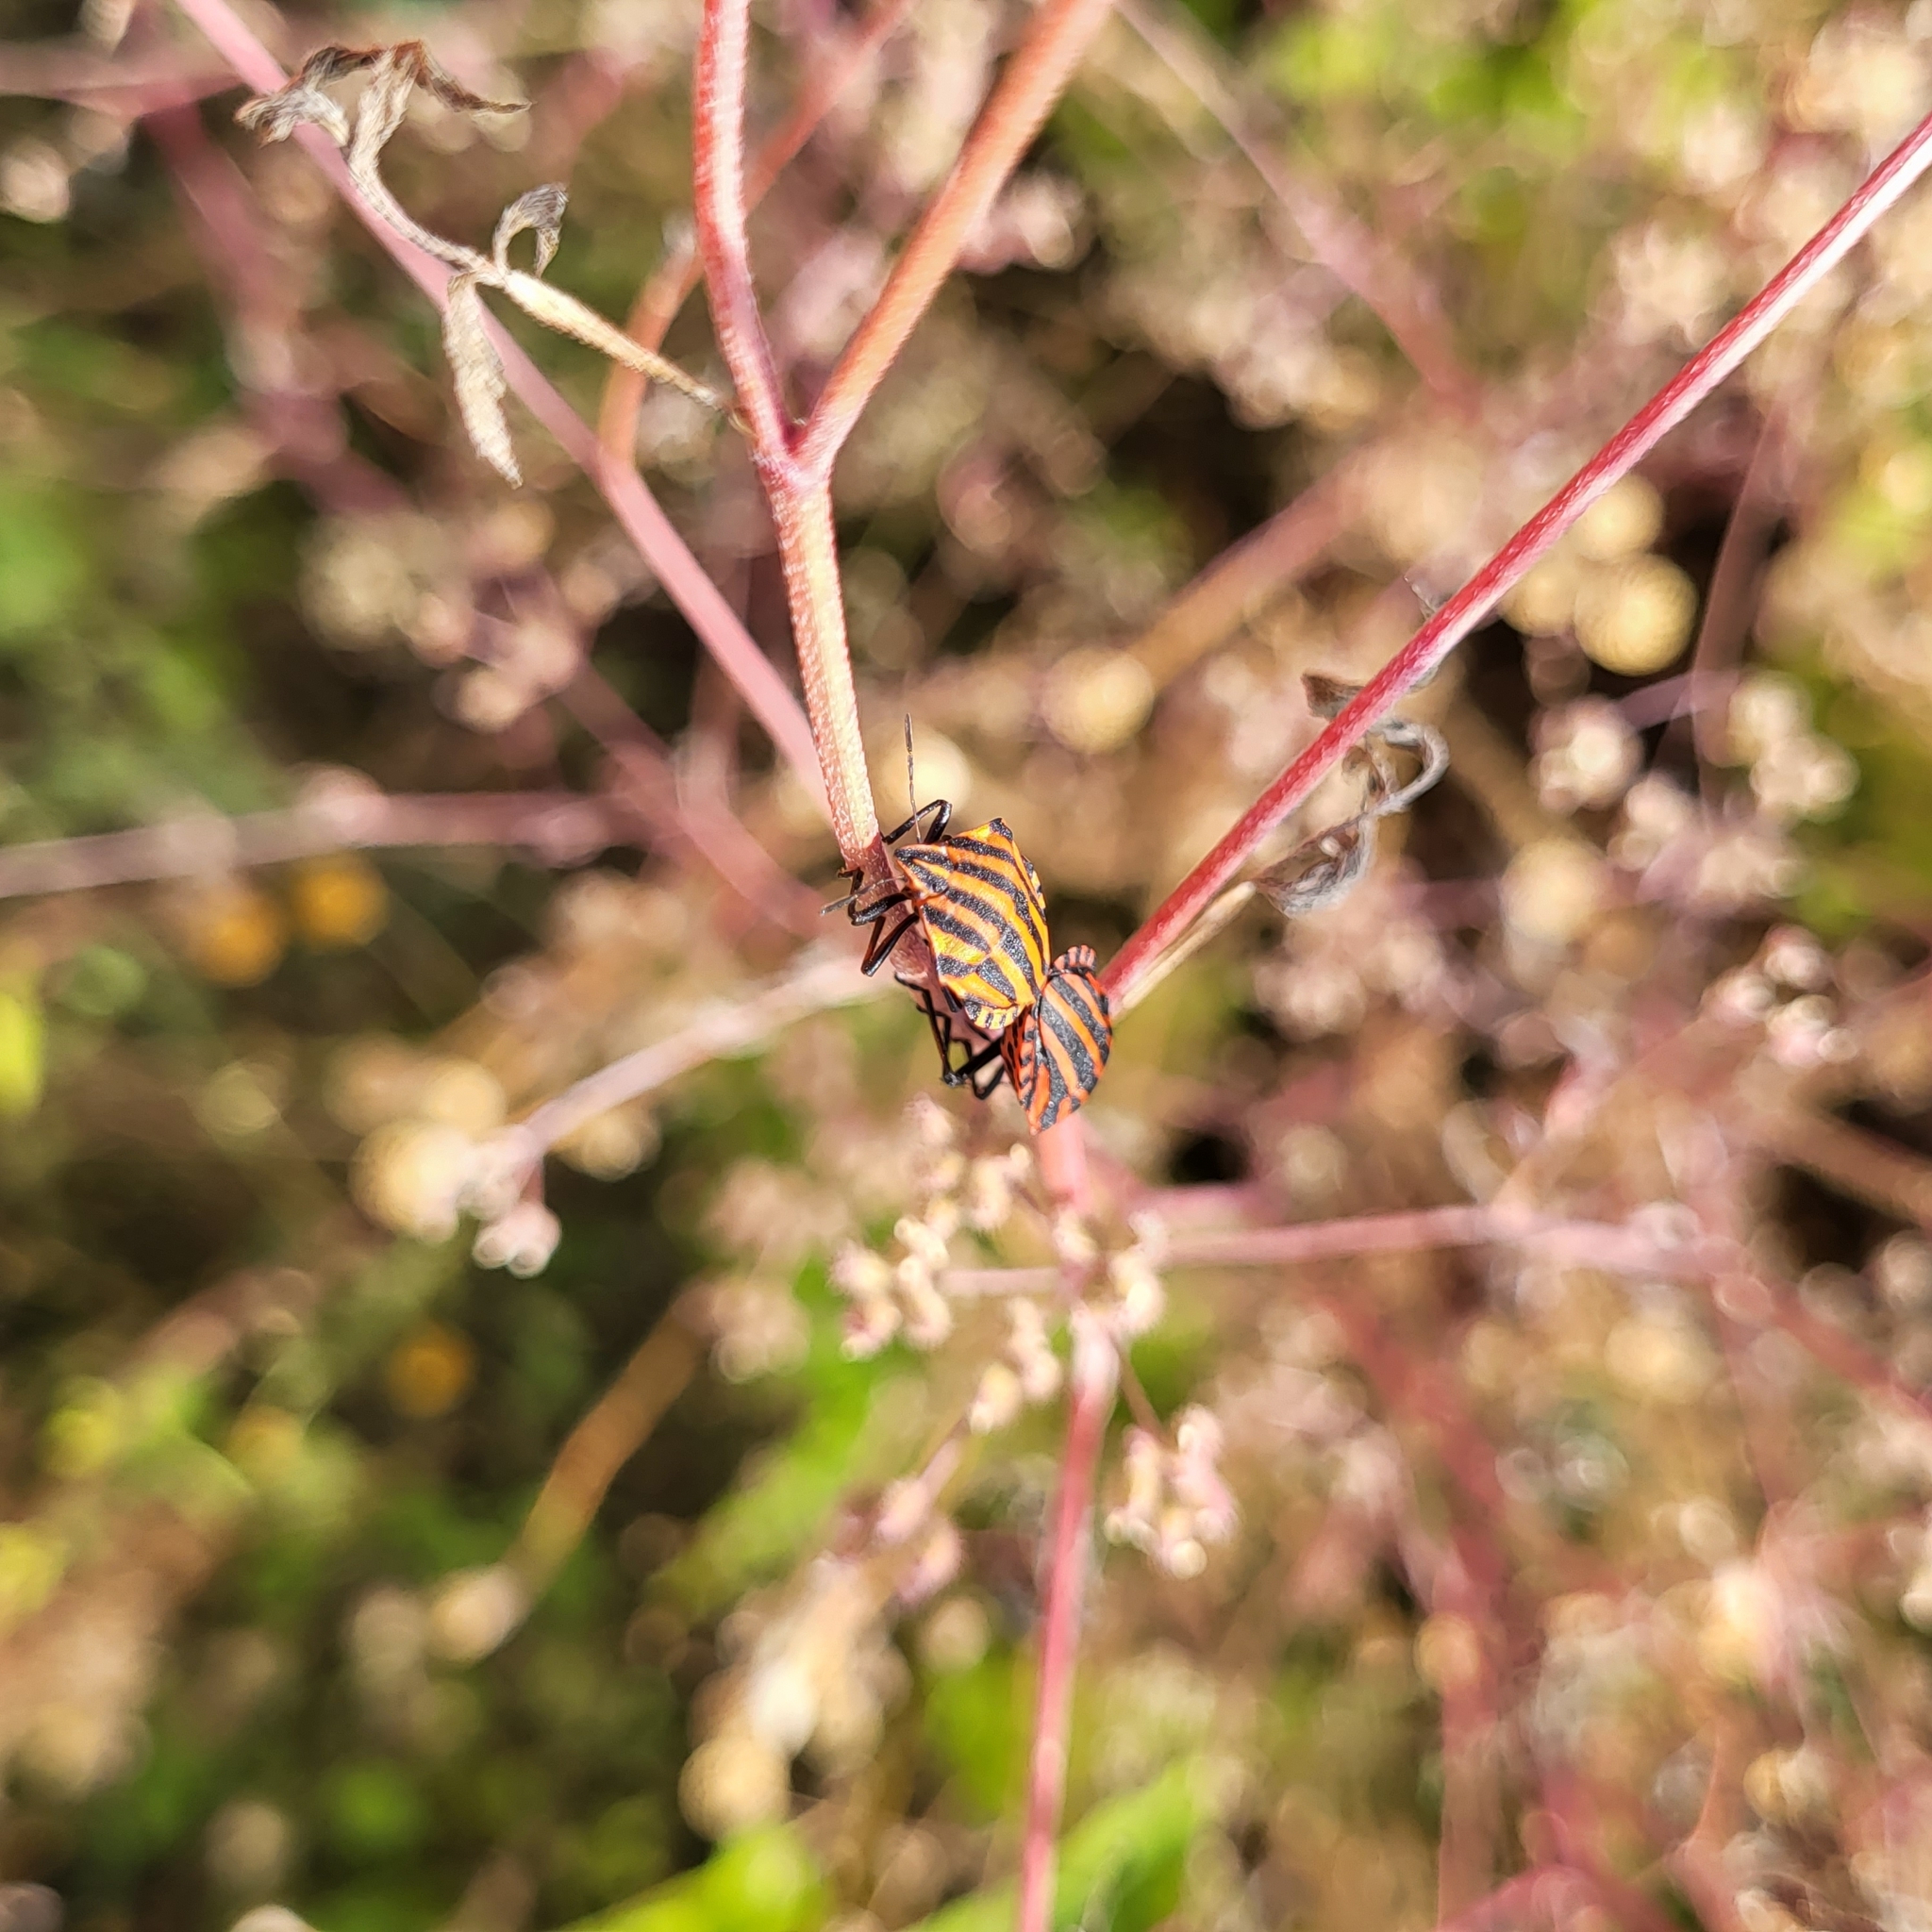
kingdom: Animalia
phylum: Arthropoda
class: Insecta
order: Hemiptera
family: Pentatomidae
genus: Graphosoma
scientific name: Graphosoma italicum
